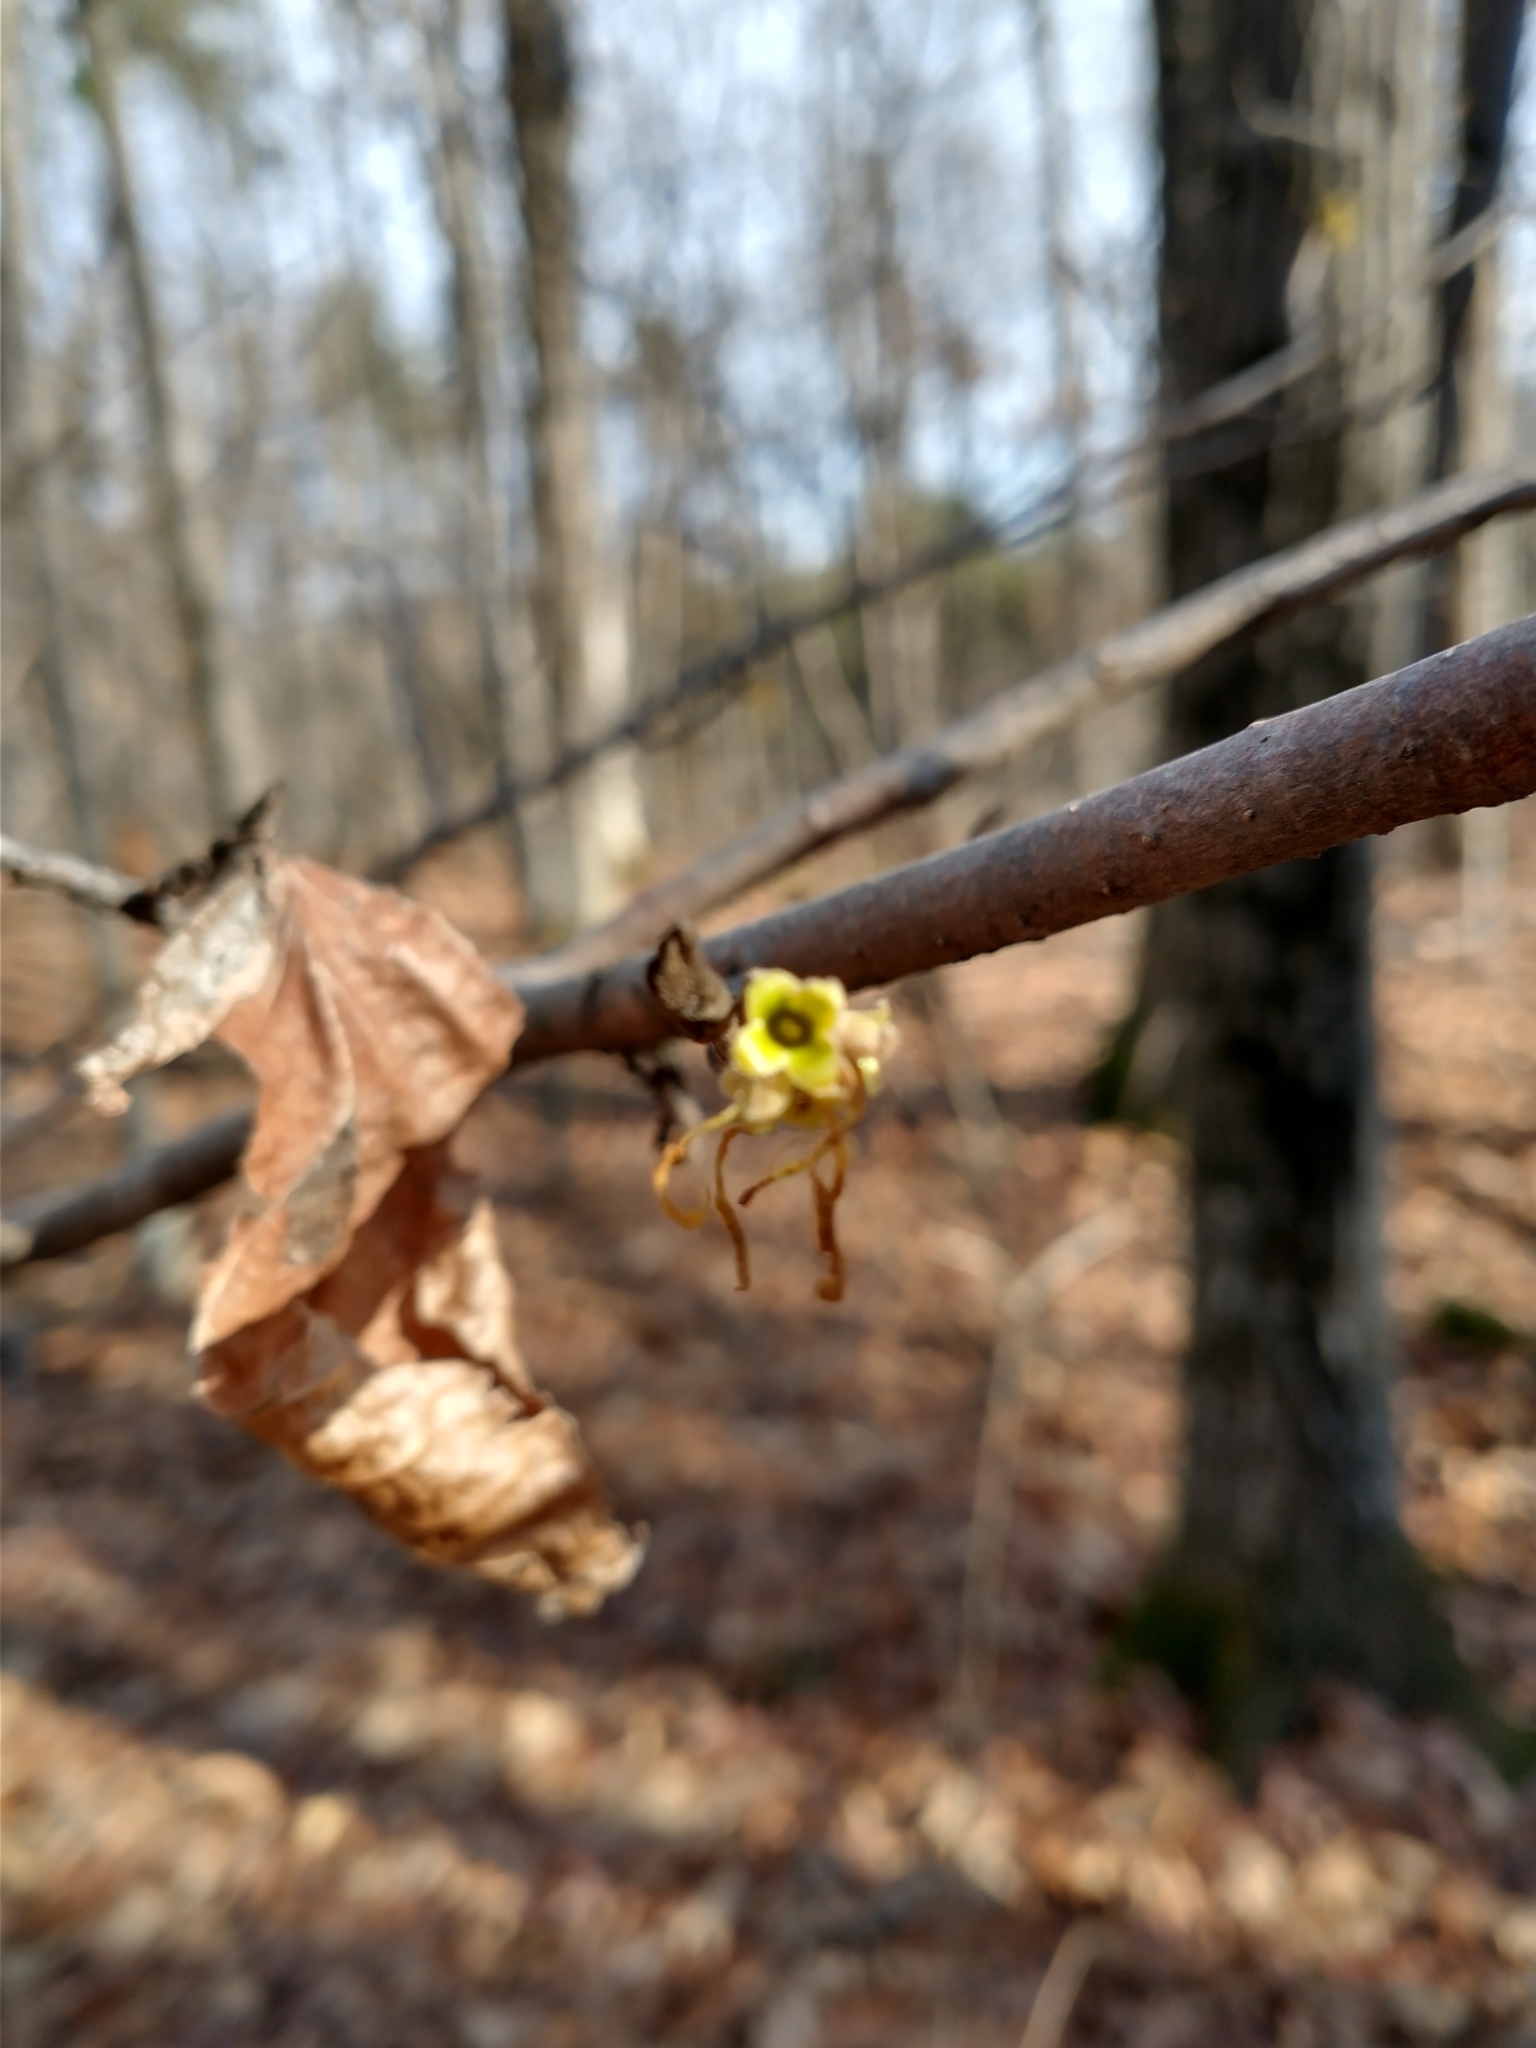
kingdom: Plantae
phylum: Tracheophyta
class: Magnoliopsida
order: Saxifragales
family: Hamamelidaceae
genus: Hamamelis
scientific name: Hamamelis virginiana
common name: Witch-hazel
